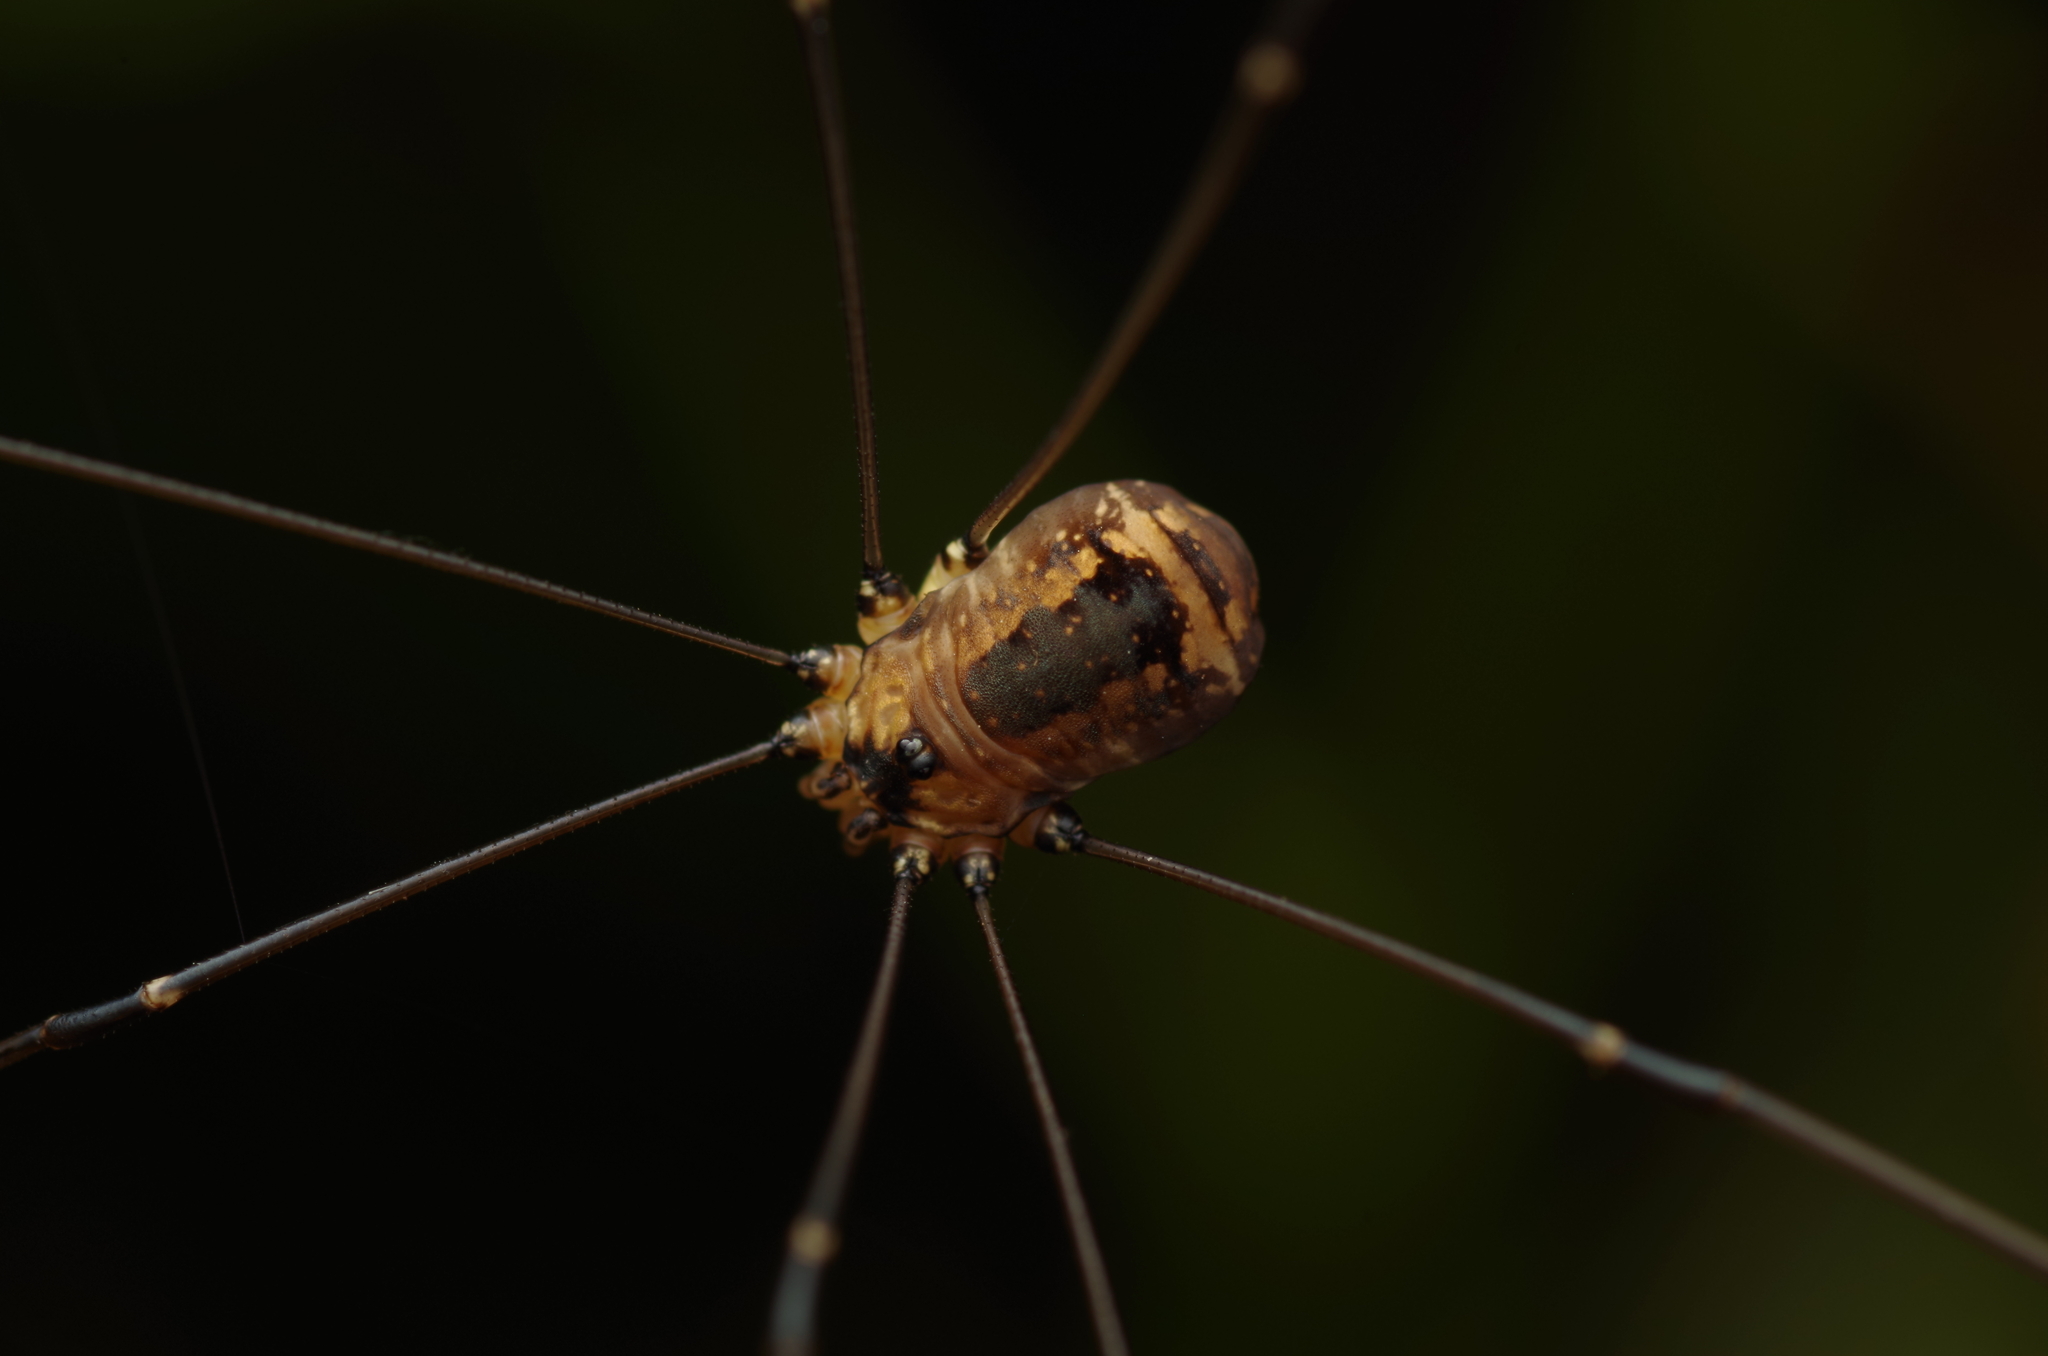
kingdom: Animalia
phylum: Arthropoda
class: Arachnida
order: Opiliones
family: Sclerosomatidae
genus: Leiobunum
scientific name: Leiobunum rotundum
